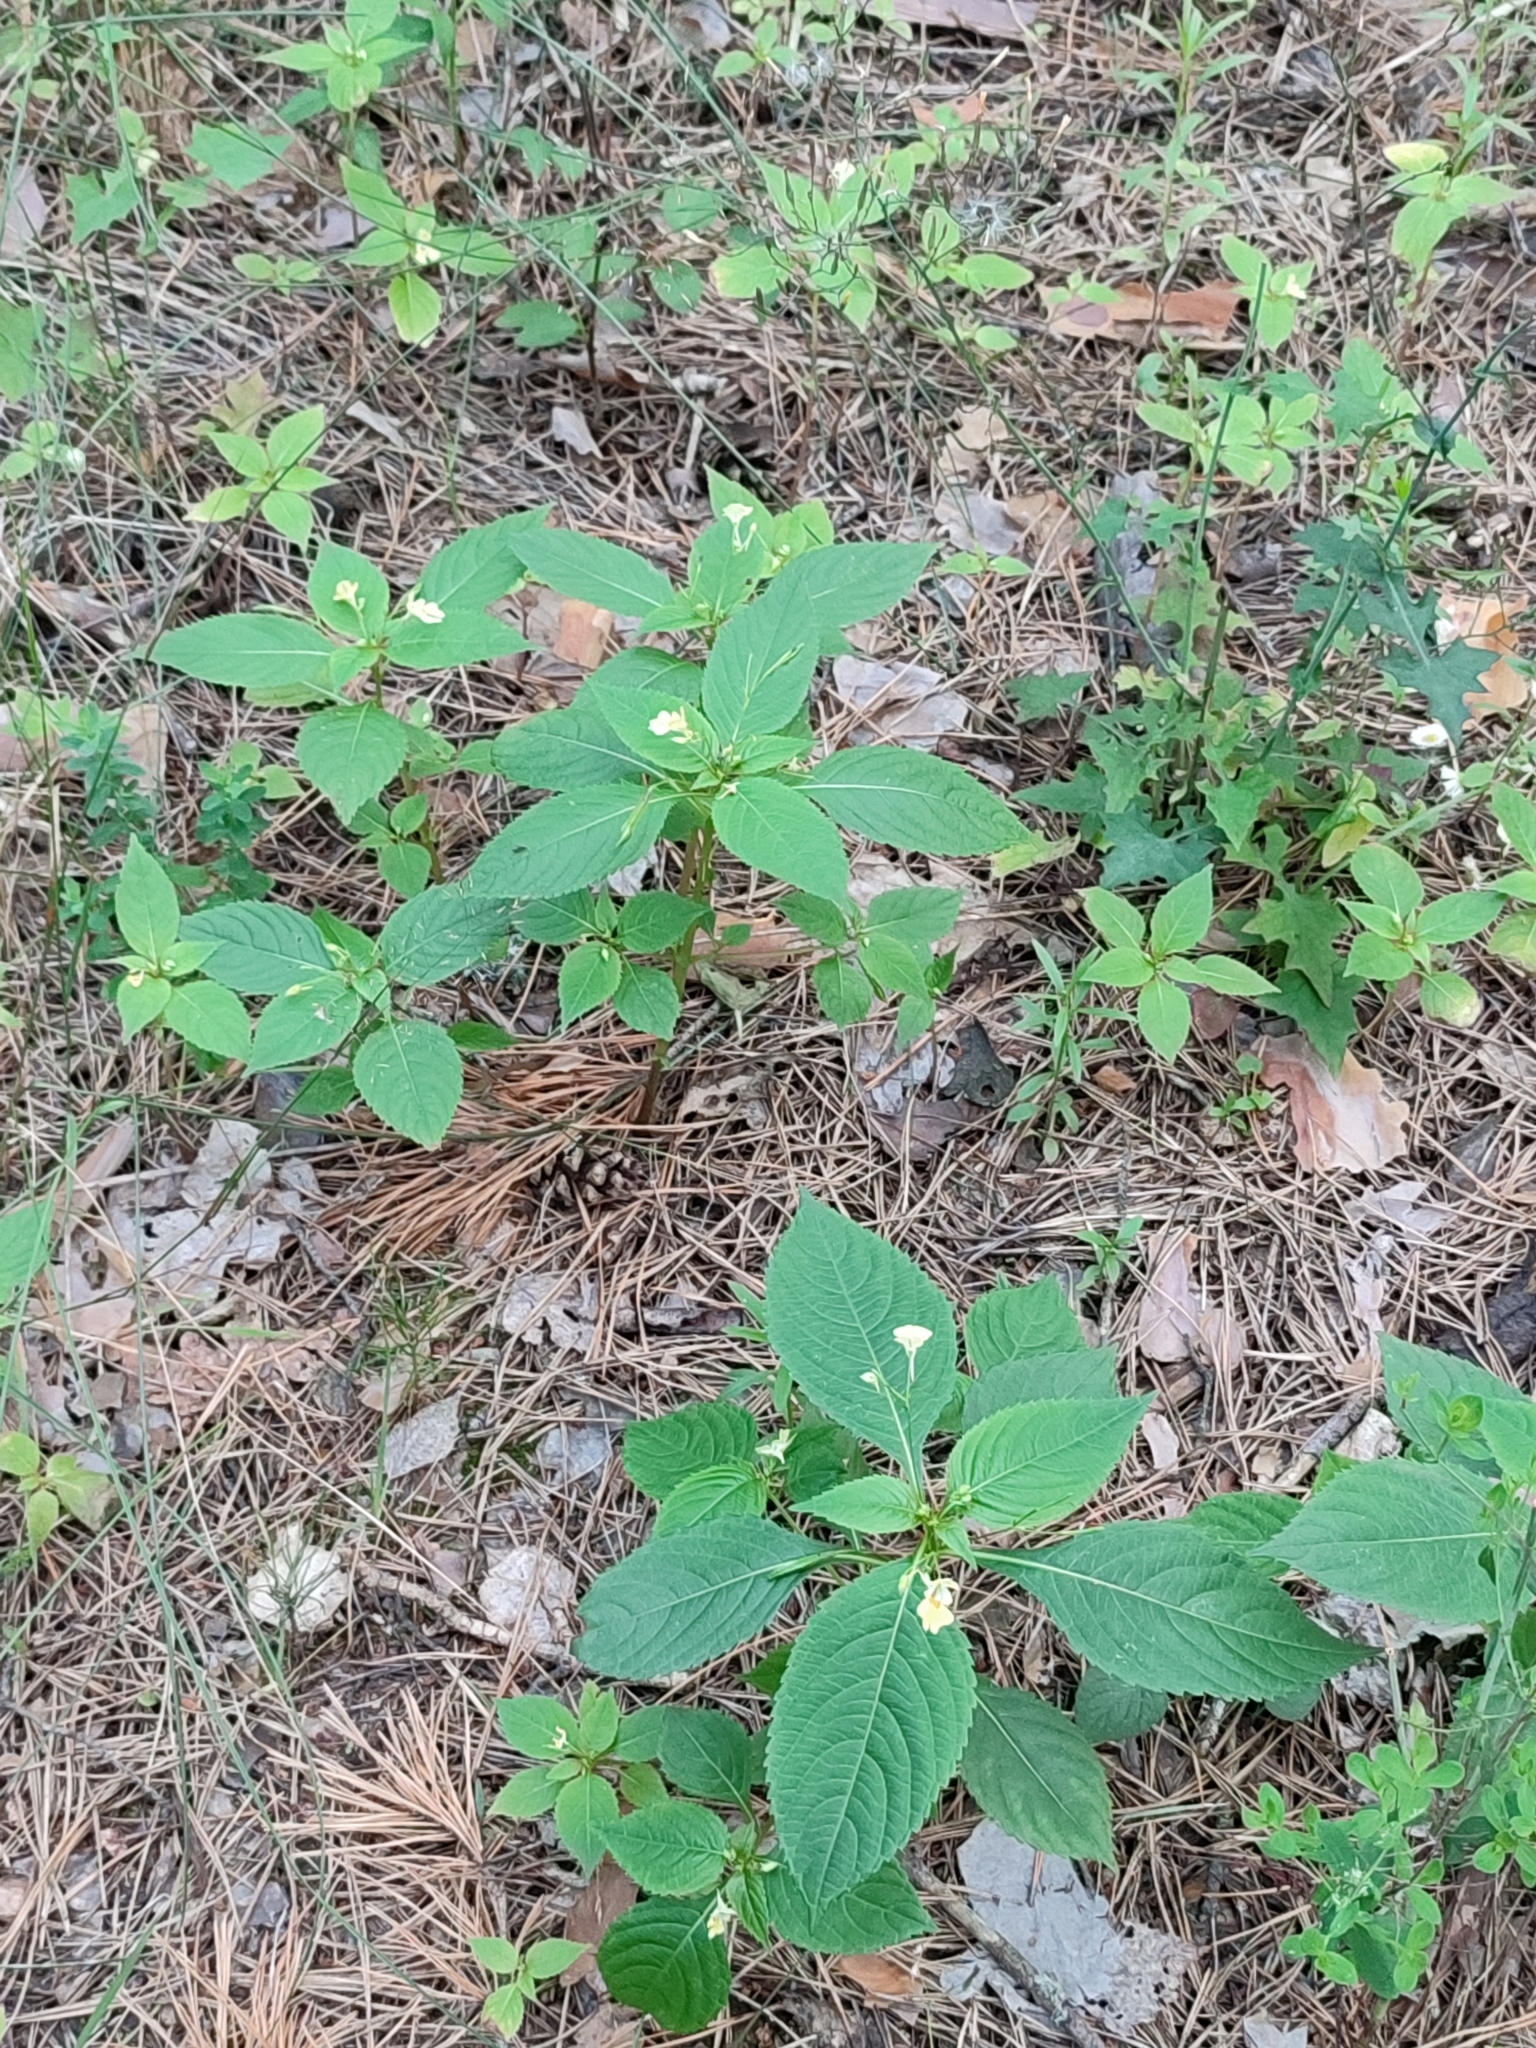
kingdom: Plantae
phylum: Tracheophyta
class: Magnoliopsida
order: Ericales
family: Balsaminaceae
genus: Impatiens
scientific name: Impatiens parviflora
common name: Small balsam
